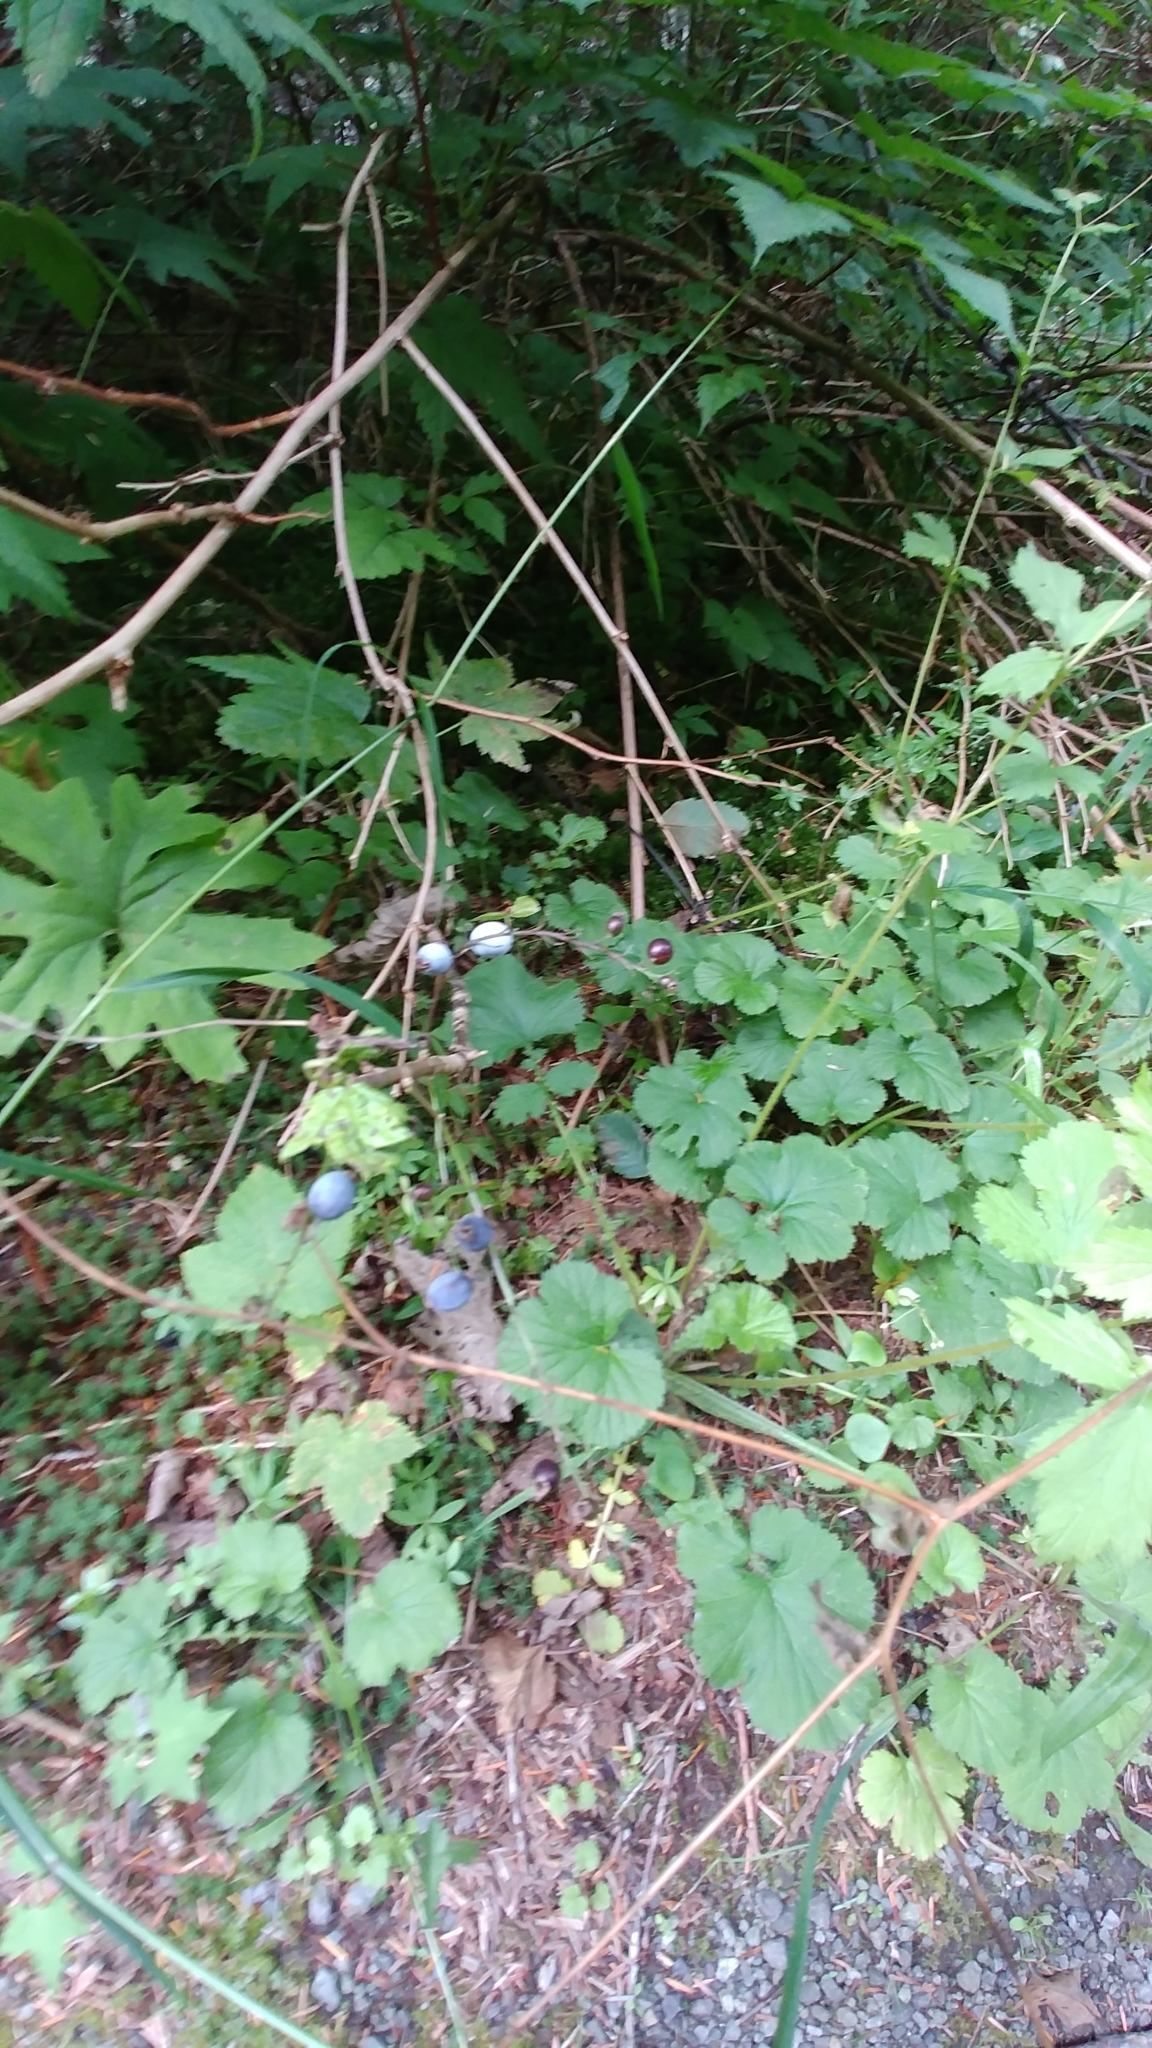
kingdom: Plantae
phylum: Tracheophyta
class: Magnoliopsida
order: Saxifragales
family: Grossulariaceae
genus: Ribes
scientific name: Ribes bracteosum
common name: California black currant
